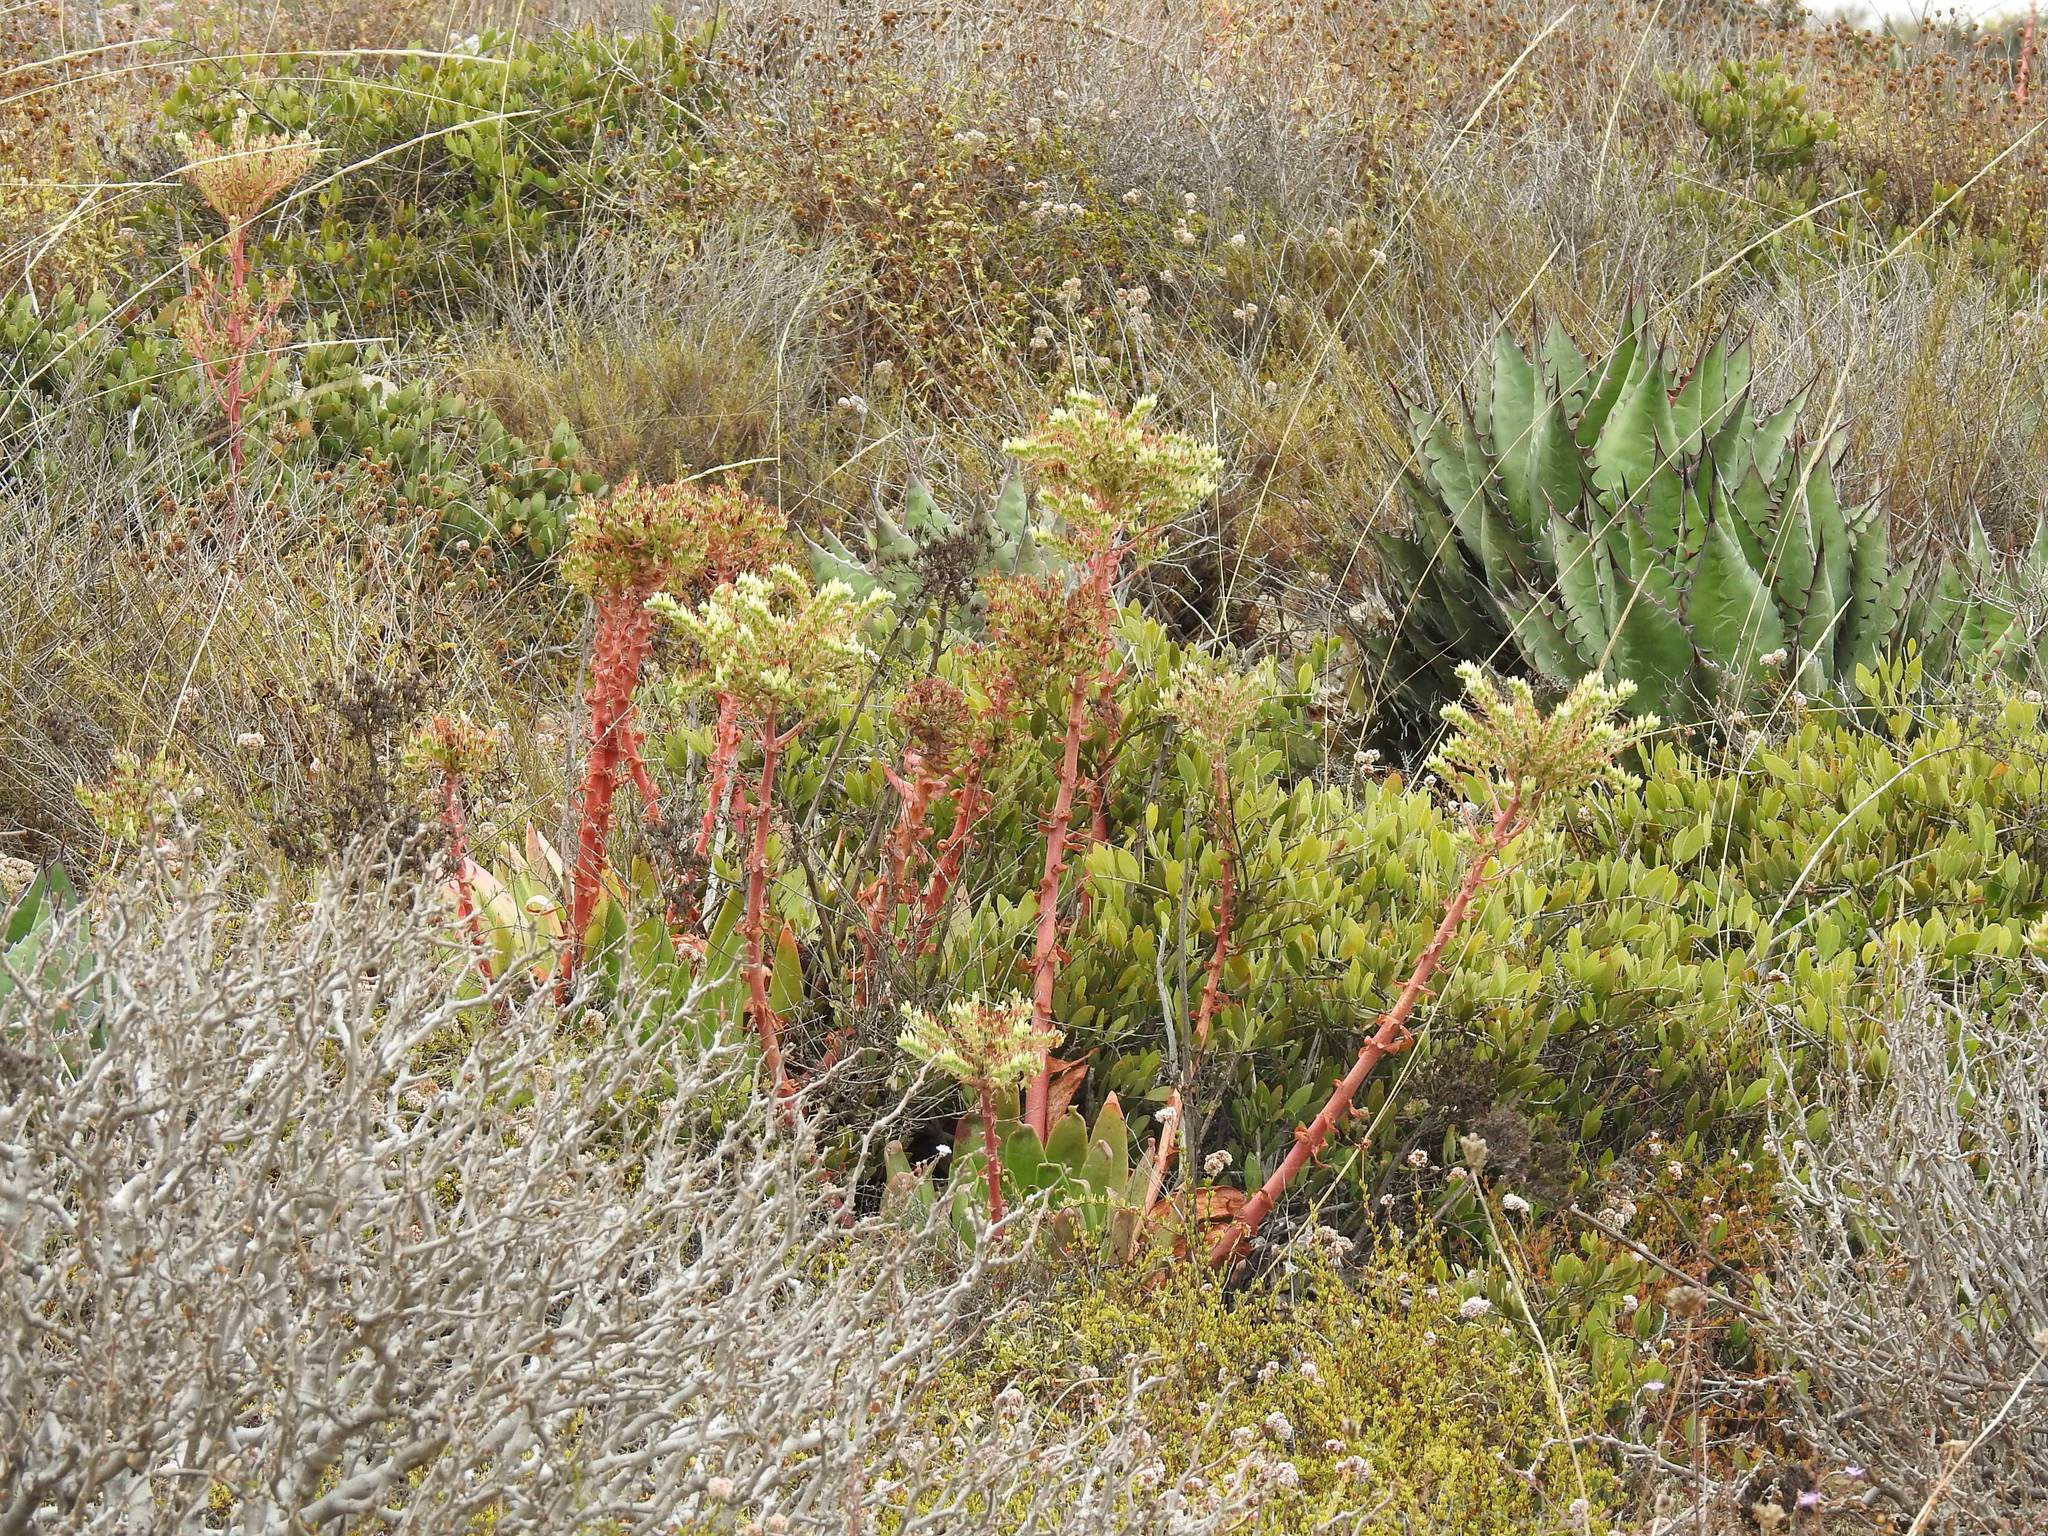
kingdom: Plantae
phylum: Tracheophyta
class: Magnoliopsida
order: Saxifragales
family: Crassulaceae
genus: Dudleya
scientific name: Dudleya
